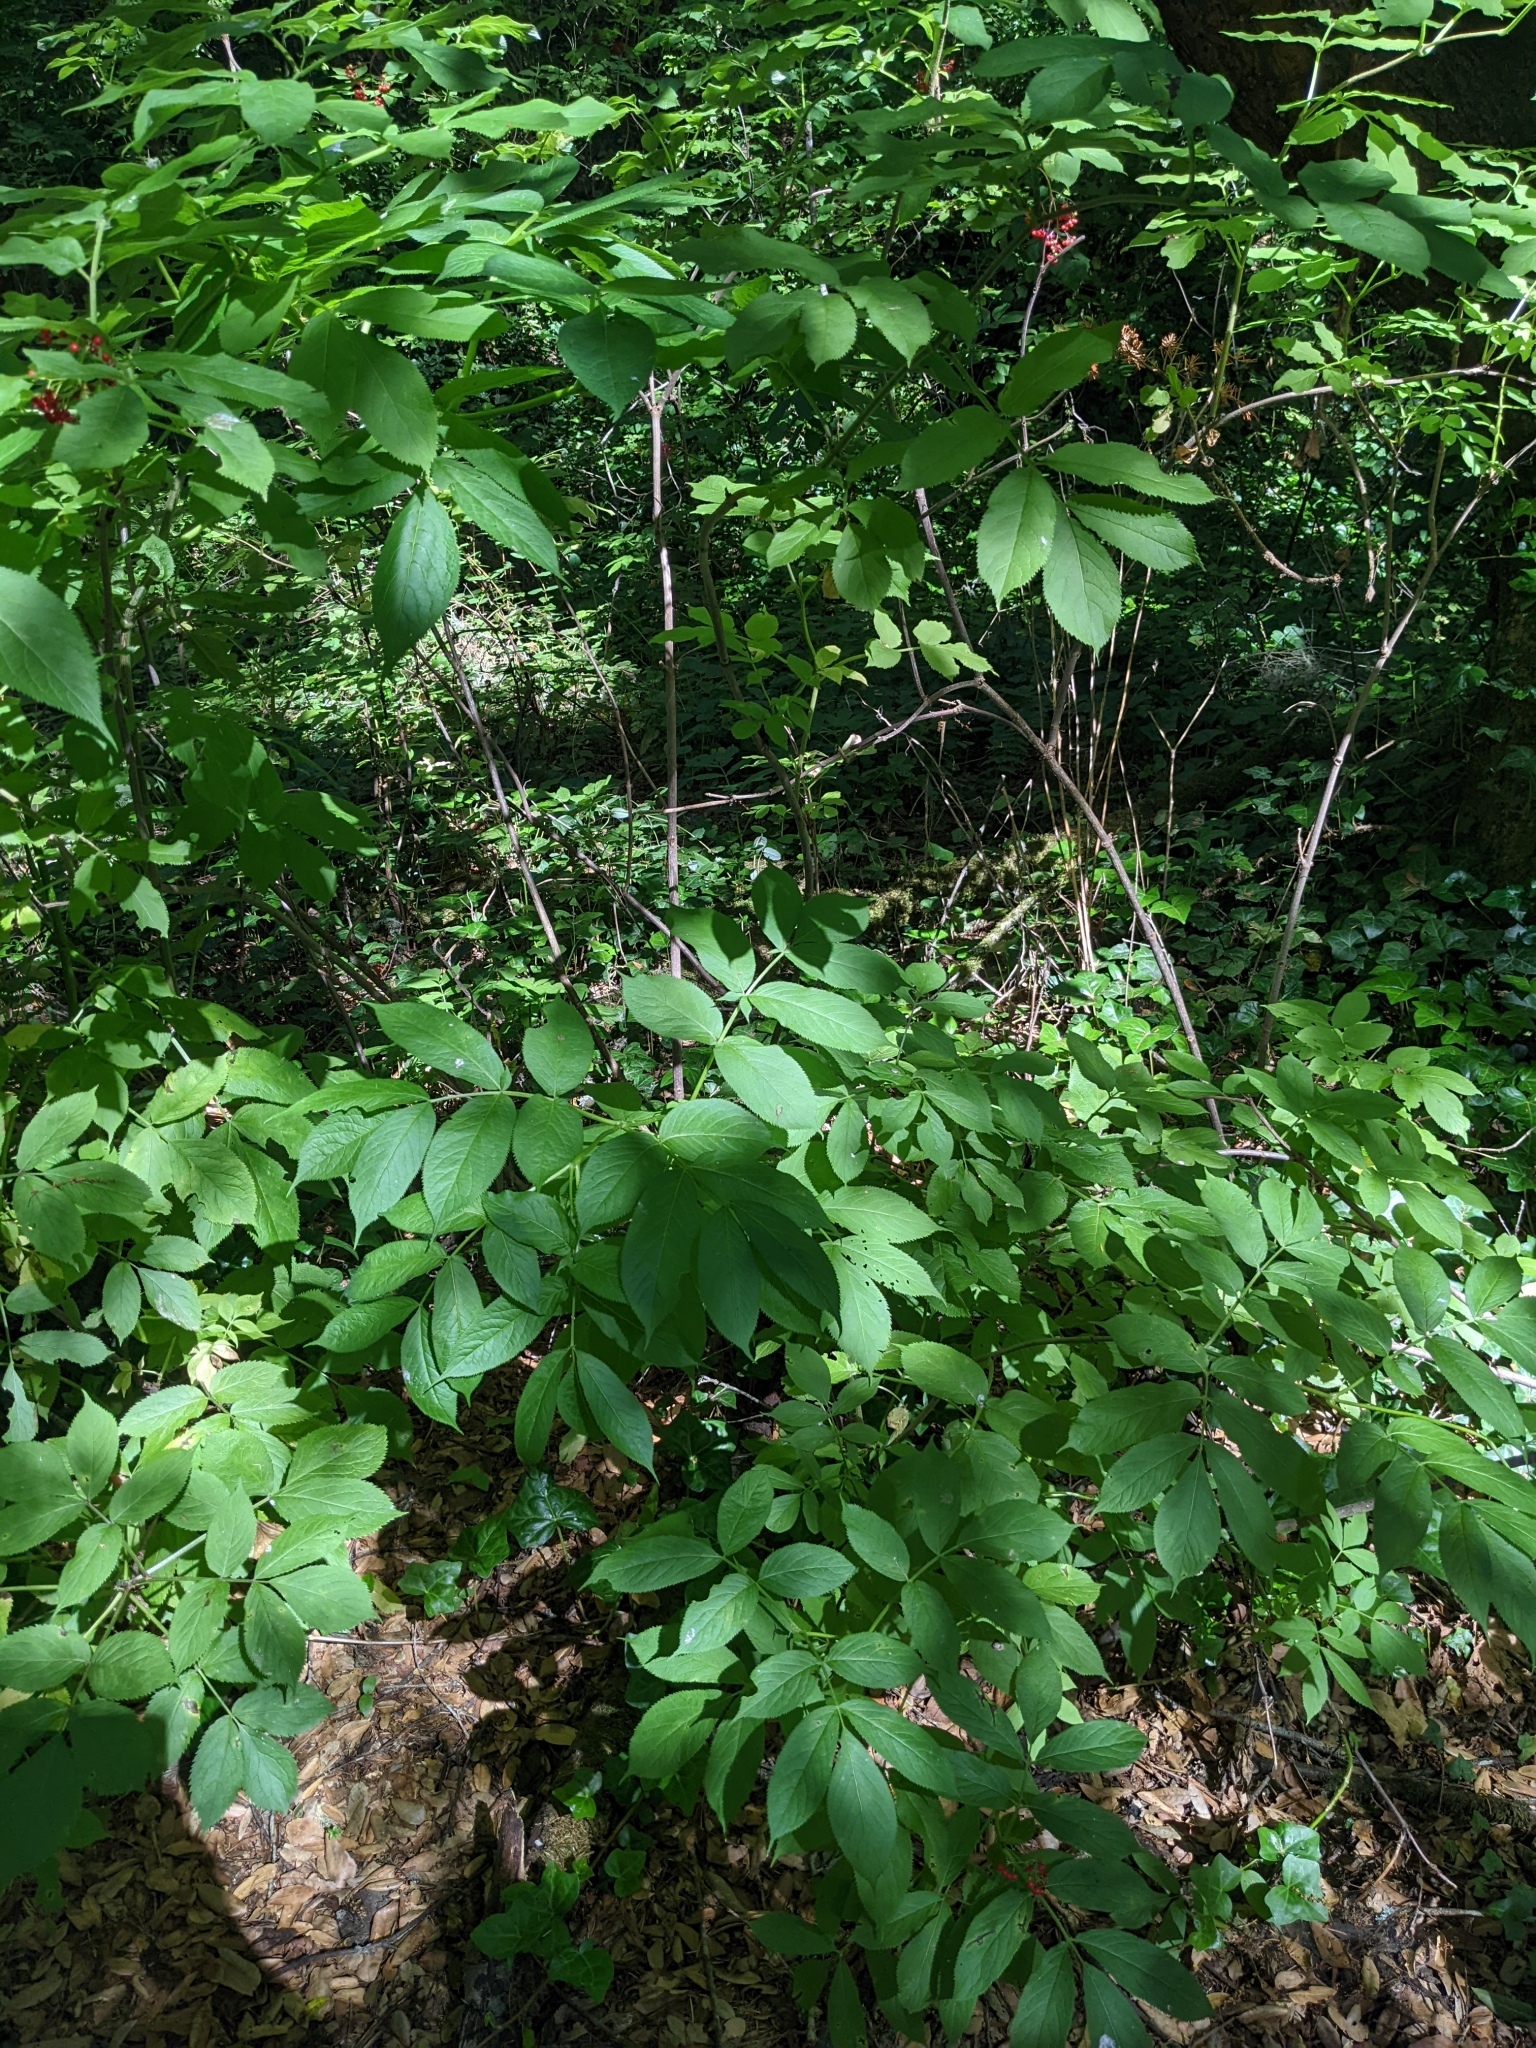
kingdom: Plantae
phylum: Tracheophyta
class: Magnoliopsida
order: Dipsacales
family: Viburnaceae
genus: Sambucus
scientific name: Sambucus racemosa
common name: Red-berried elder
